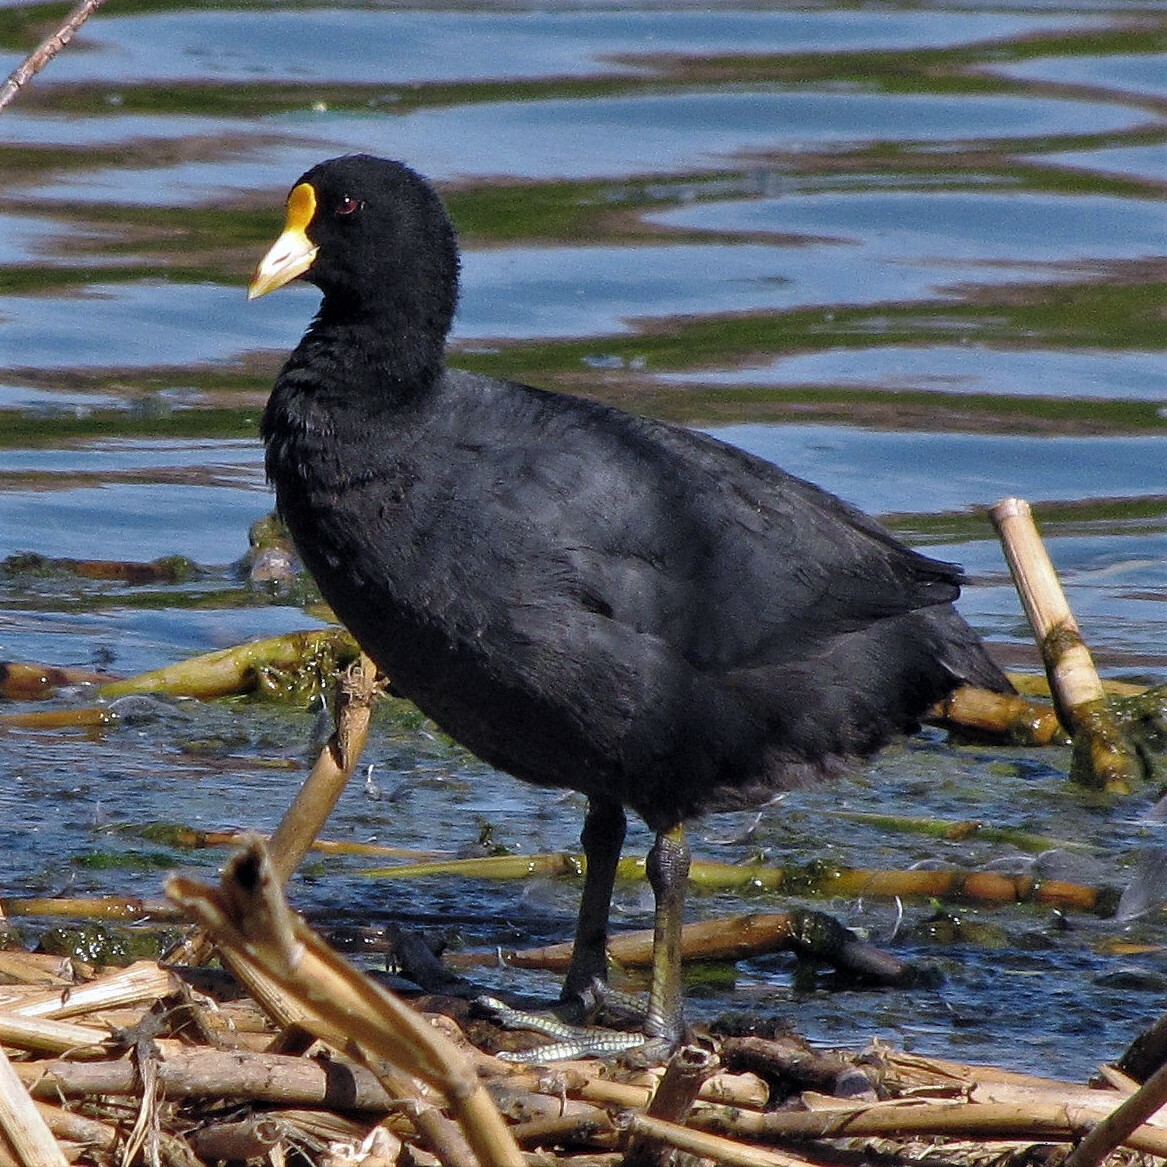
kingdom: Animalia
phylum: Chordata
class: Aves
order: Gruiformes
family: Rallidae
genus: Fulica
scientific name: Fulica leucoptera
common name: White-winged coot
